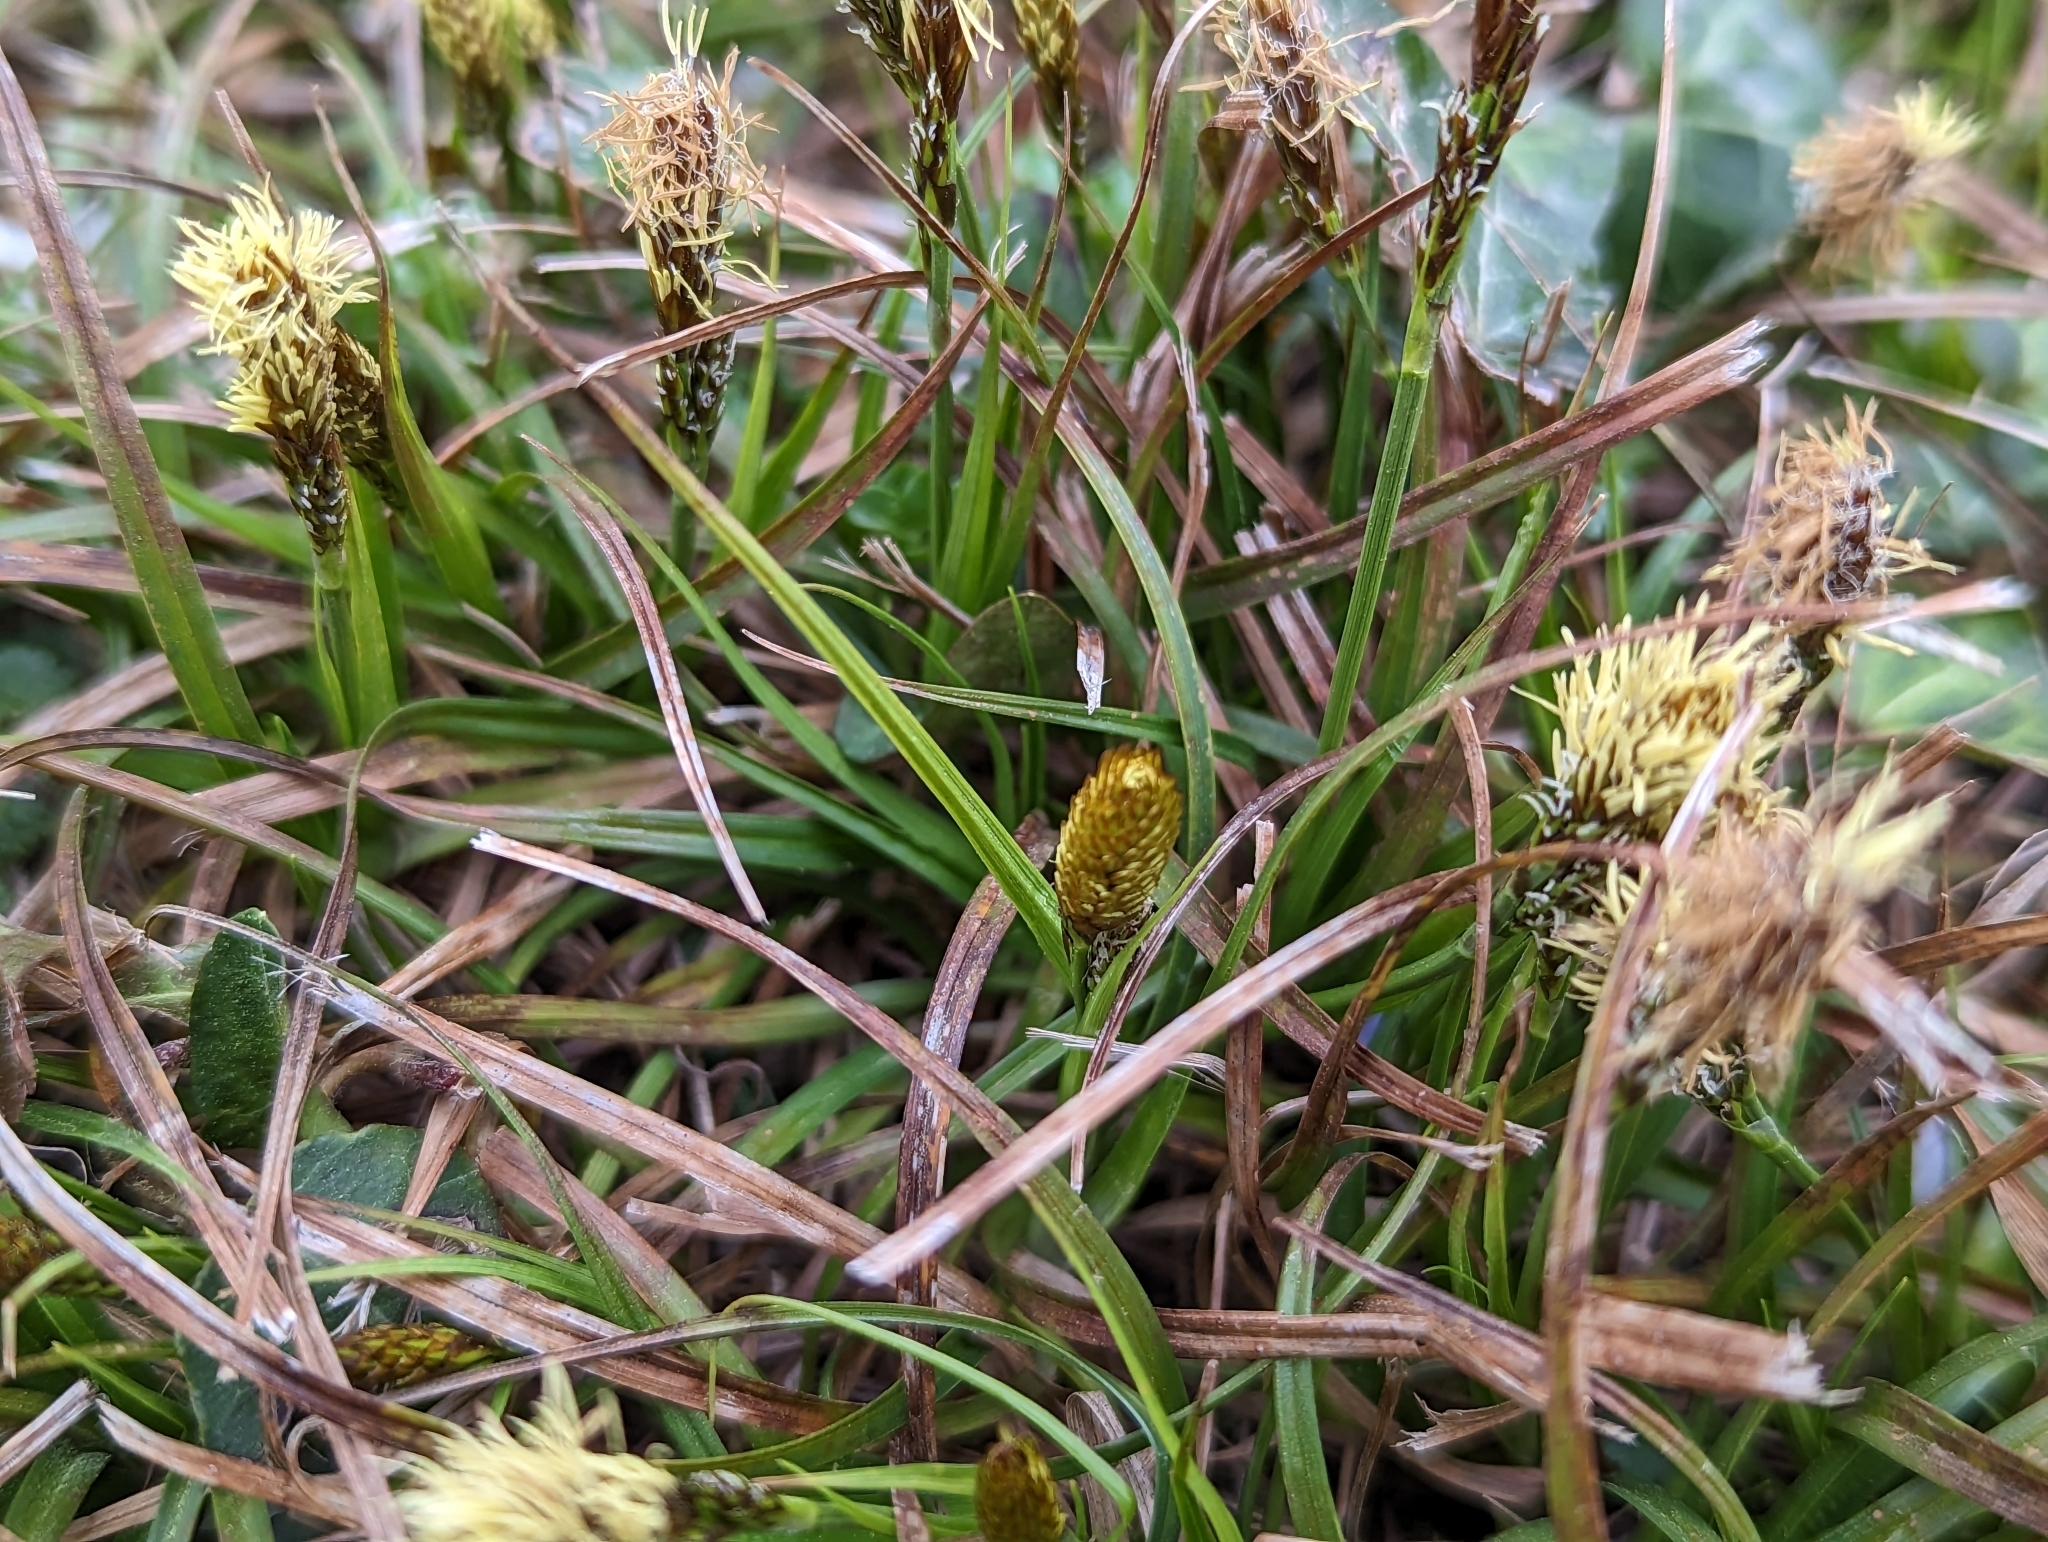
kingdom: Plantae
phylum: Tracheophyta
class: Liliopsida
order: Poales
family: Cyperaceae
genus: Carex
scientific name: Carex caryophyllea
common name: Spring sedge
